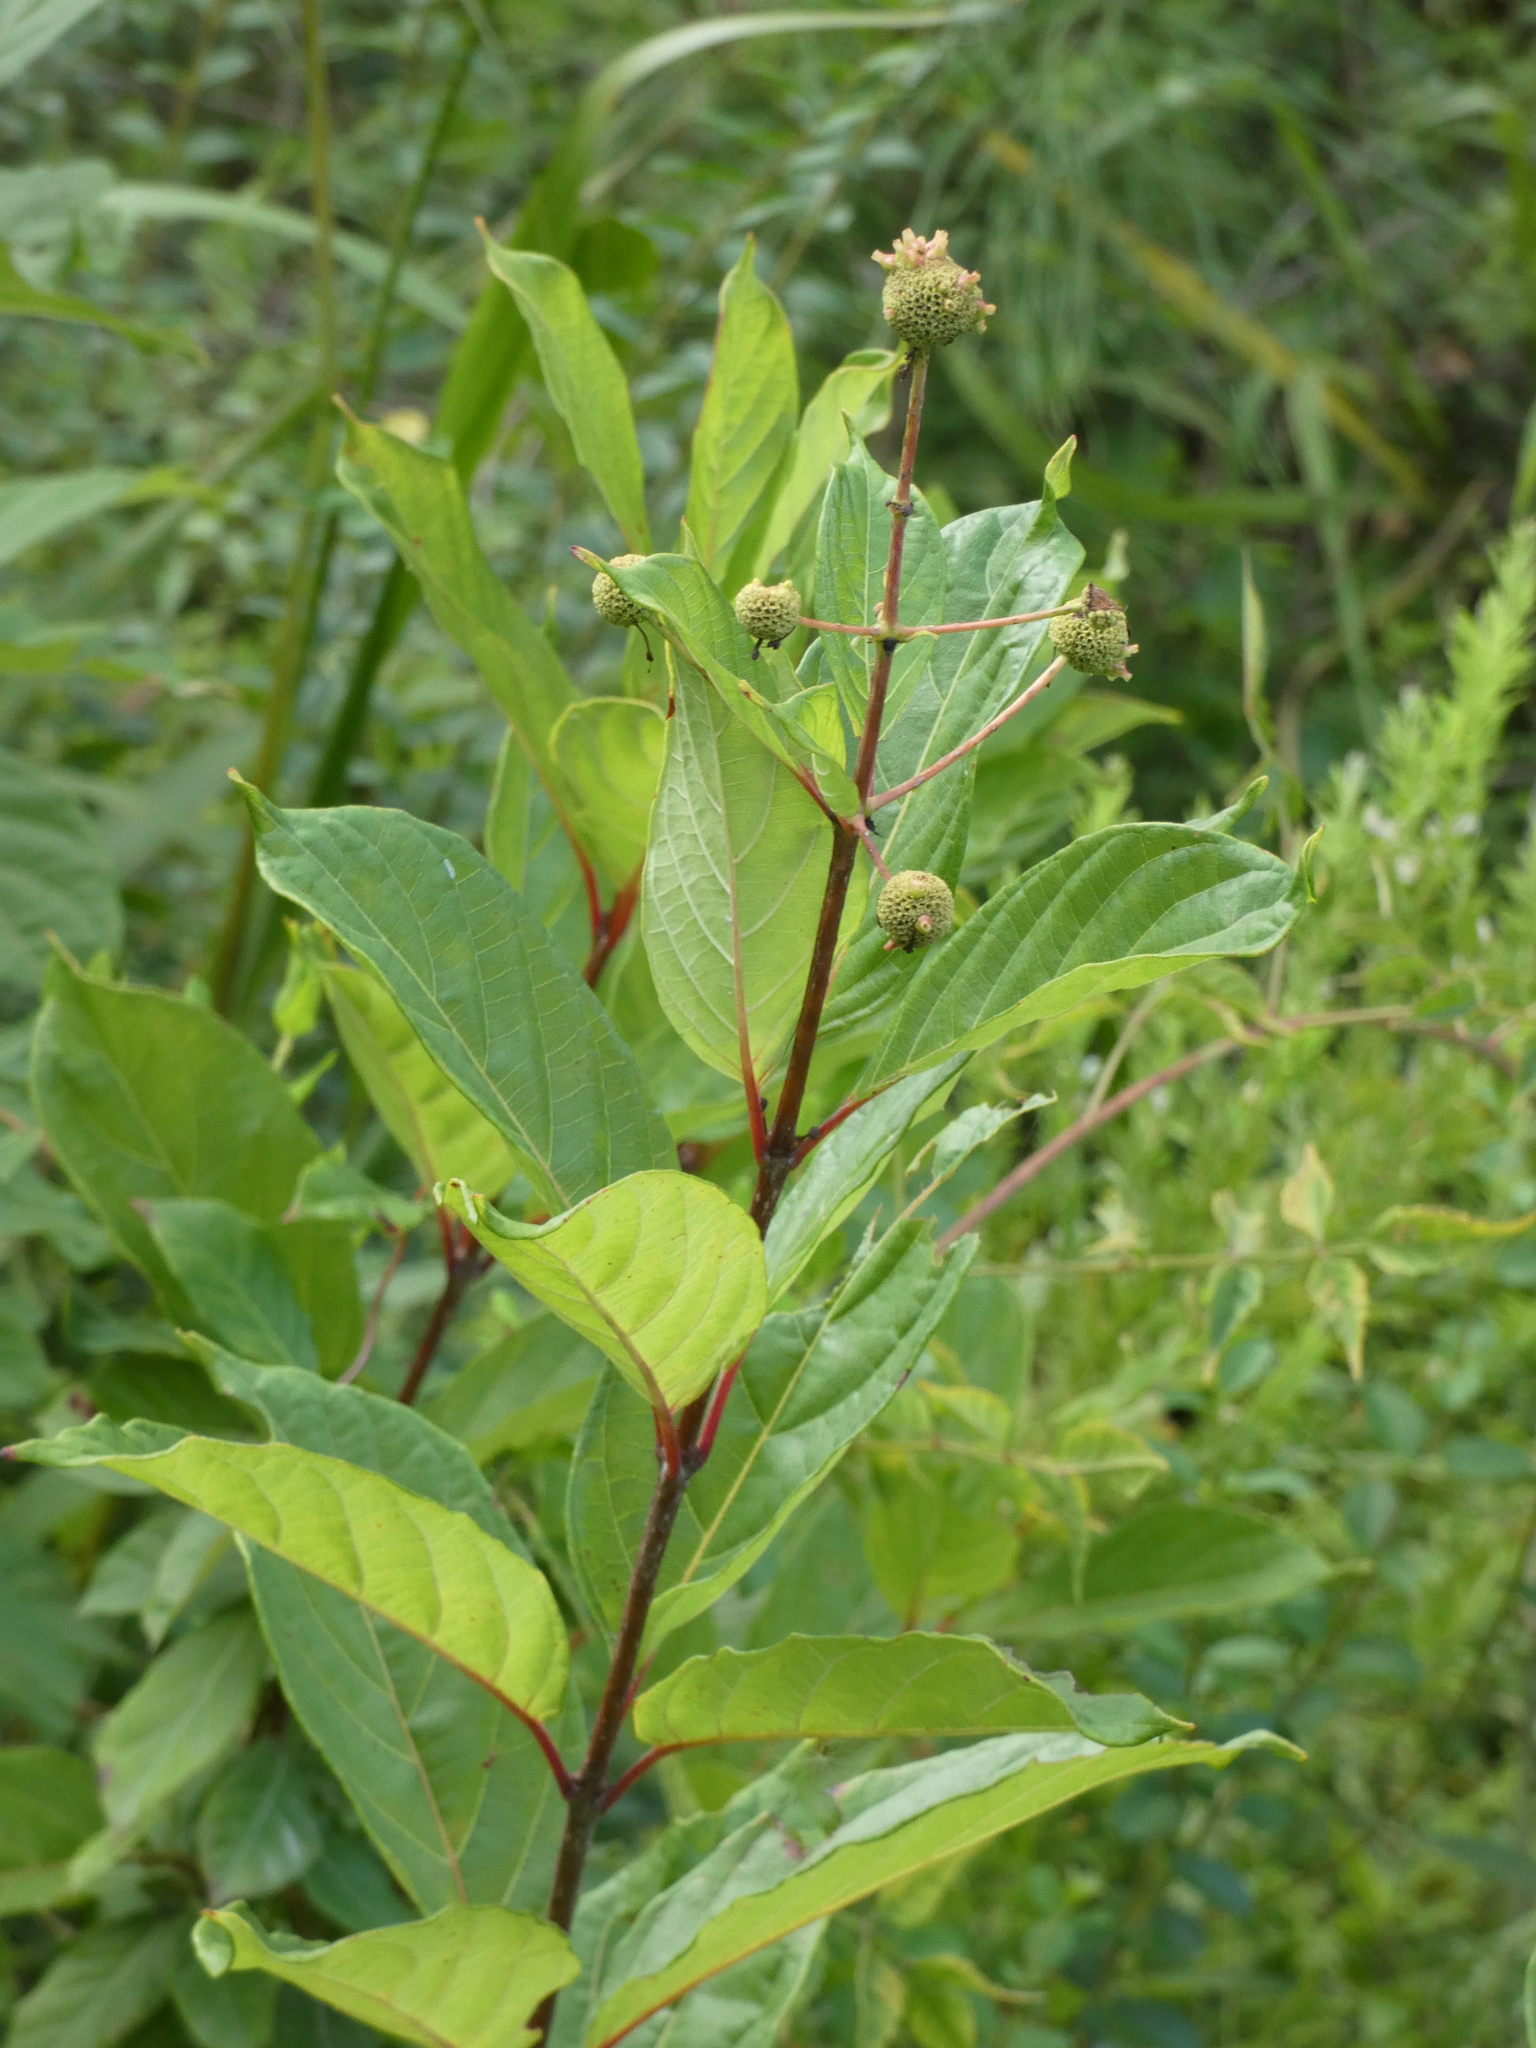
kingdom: Plantae
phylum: Tracheophyta
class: Magnoliopsida
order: Gentianales
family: Rubiaceae
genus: Cephalanthus
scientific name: Cephalanthus occidentalis
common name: Button-willow
